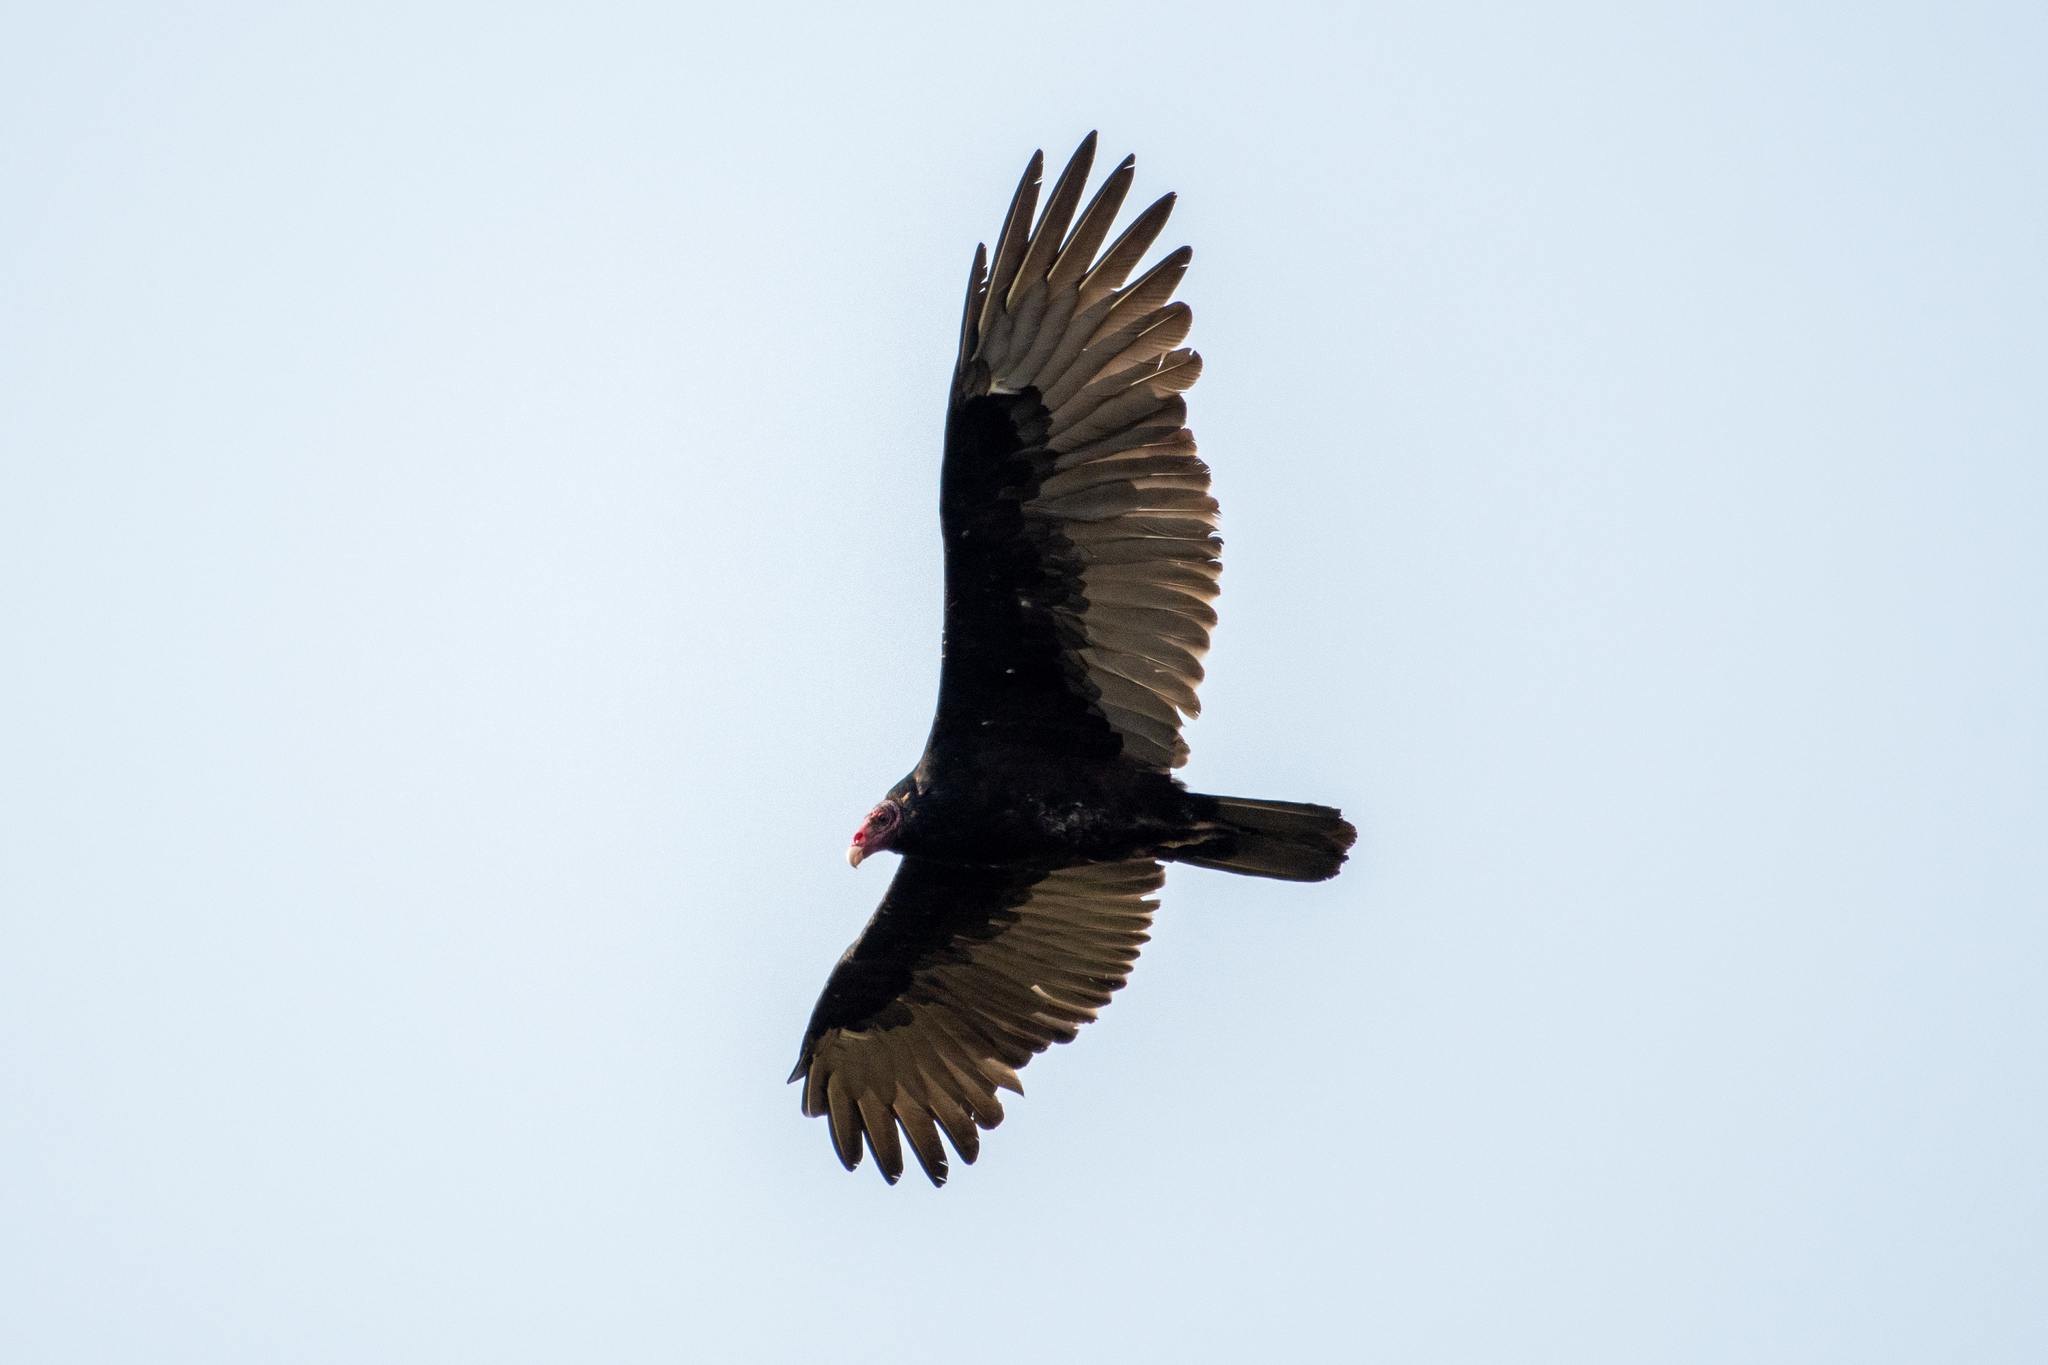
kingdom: Animalia
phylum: Chordata
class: Aves
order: Accipitriformes
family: Cathartidae
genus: Cathartes
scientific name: Cathartes aura
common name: Turkey vulture
